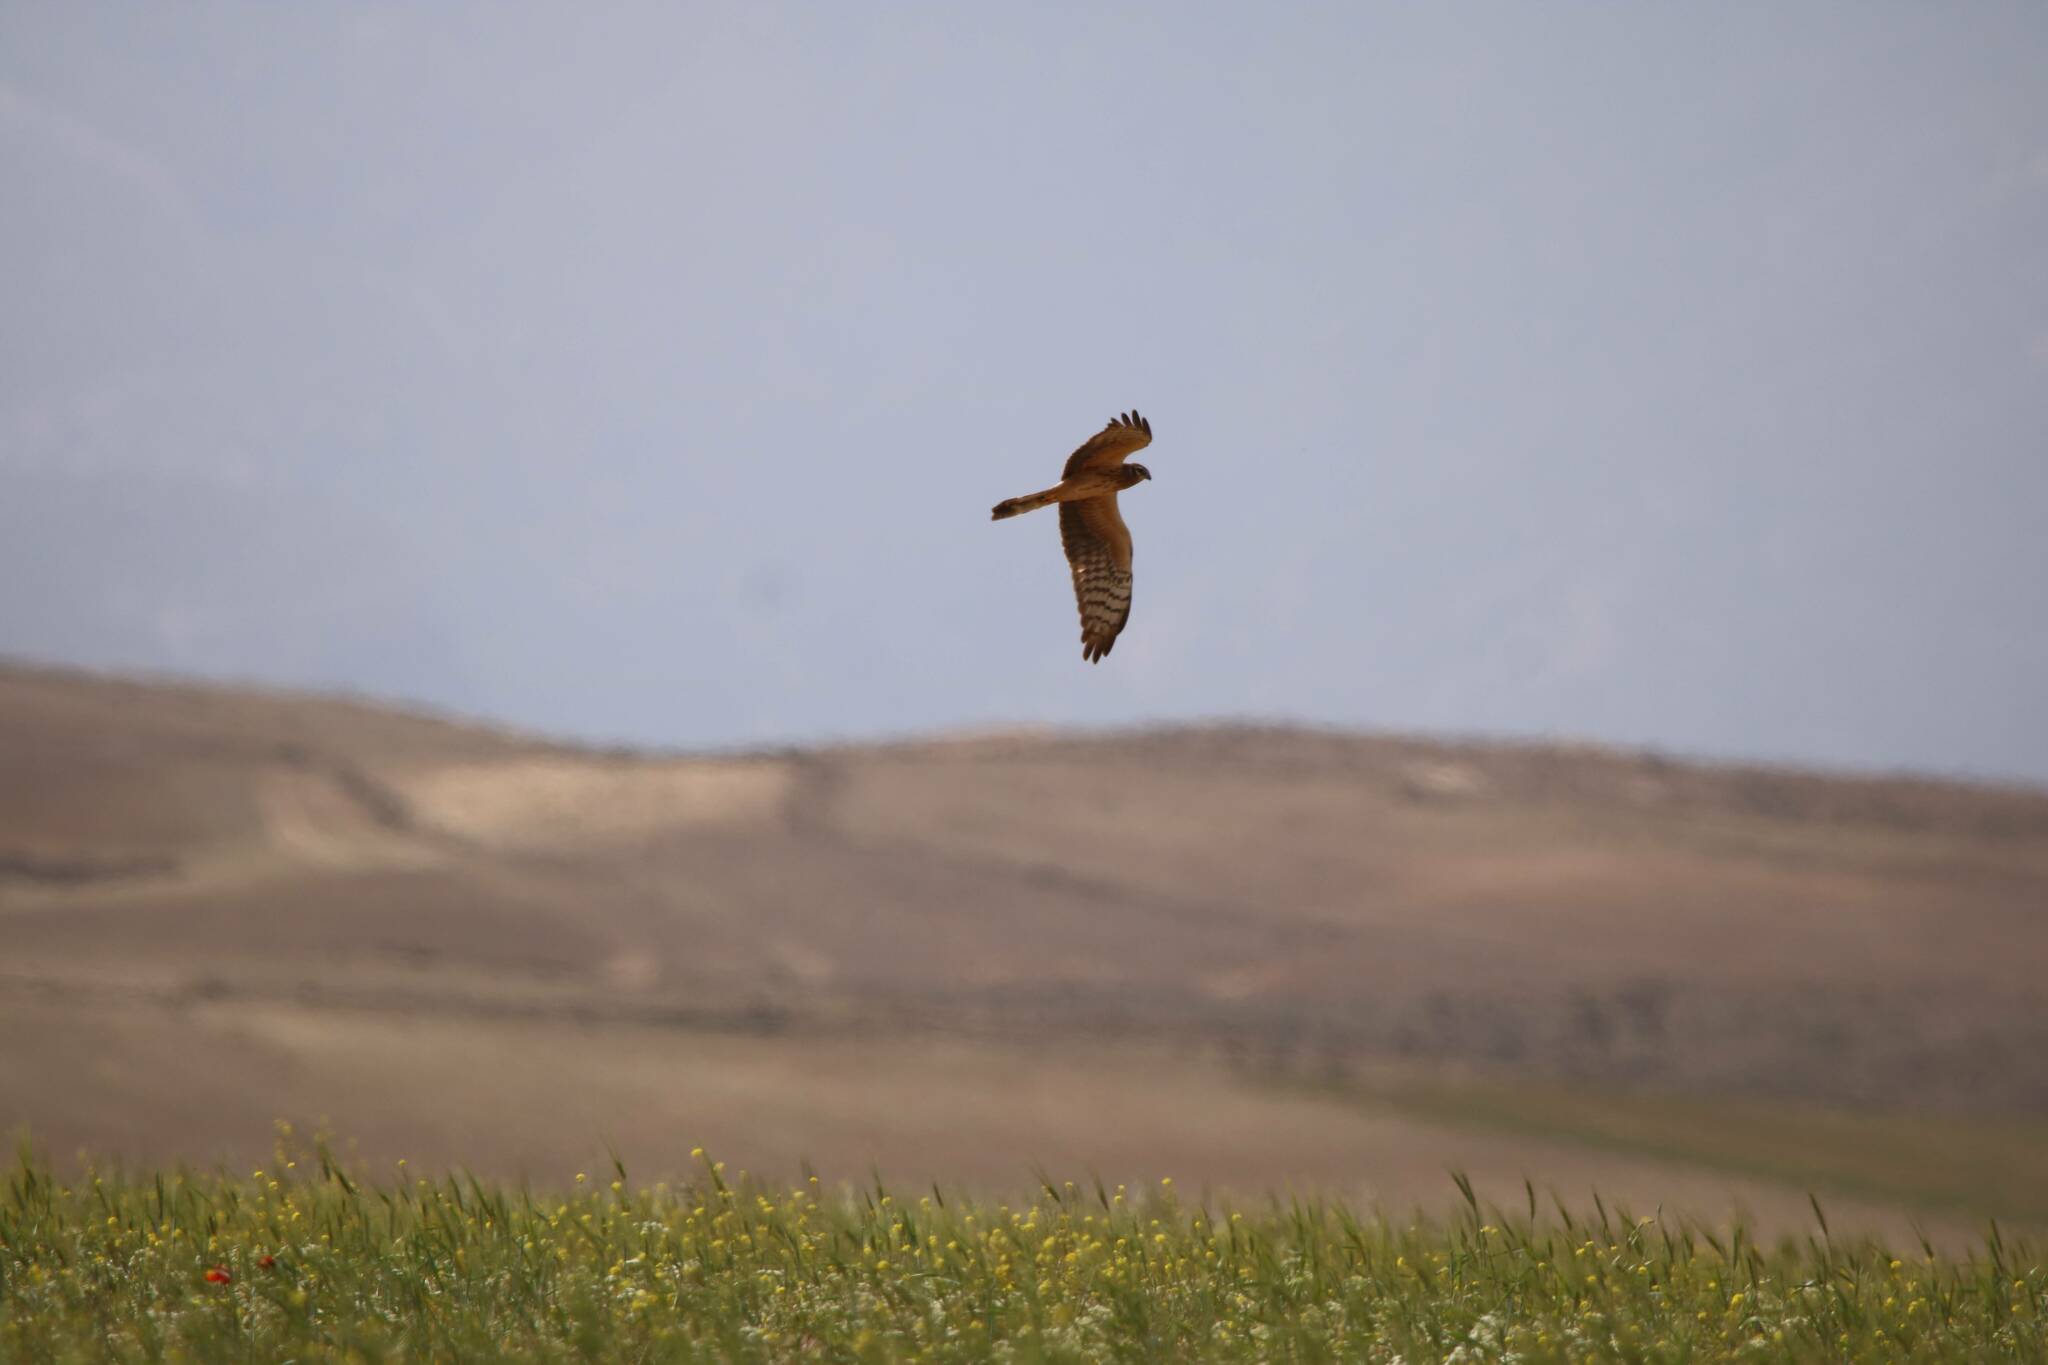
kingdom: Animalia
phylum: Chordata
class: Aves
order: Accipitriformes
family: Accipitridae
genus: Circus
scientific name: Circus pygargus
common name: Montagu's harrier
